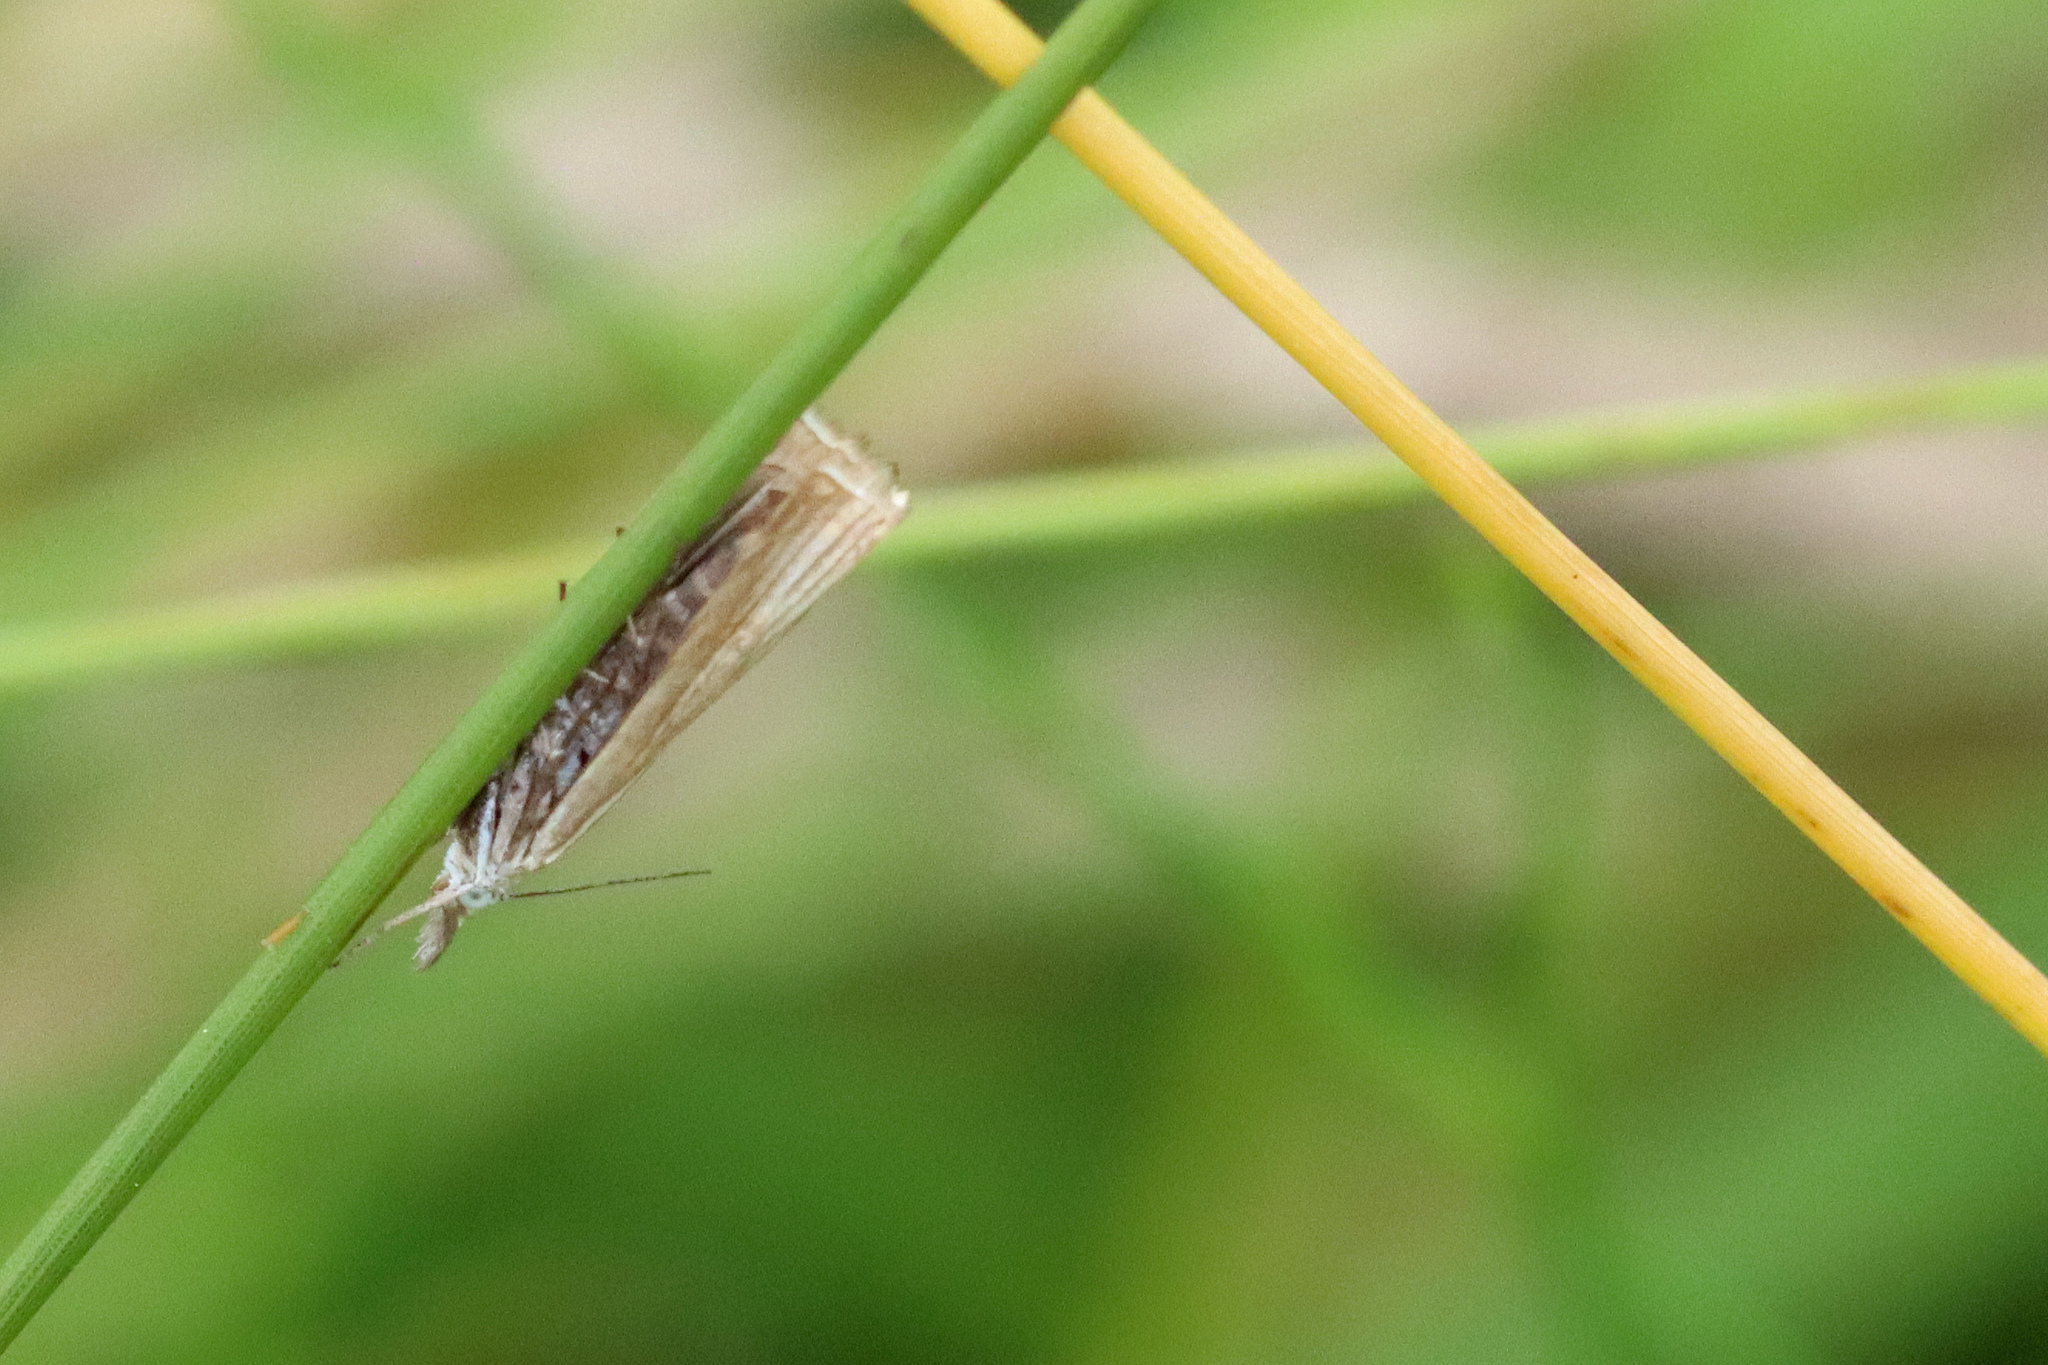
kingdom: Animalia
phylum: Arthropoda
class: Insecta
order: Lepidoptera
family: Crambidae
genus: Chrysoteuchia
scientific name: Chrysoteuchia culmella
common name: Garden grass-veneer
